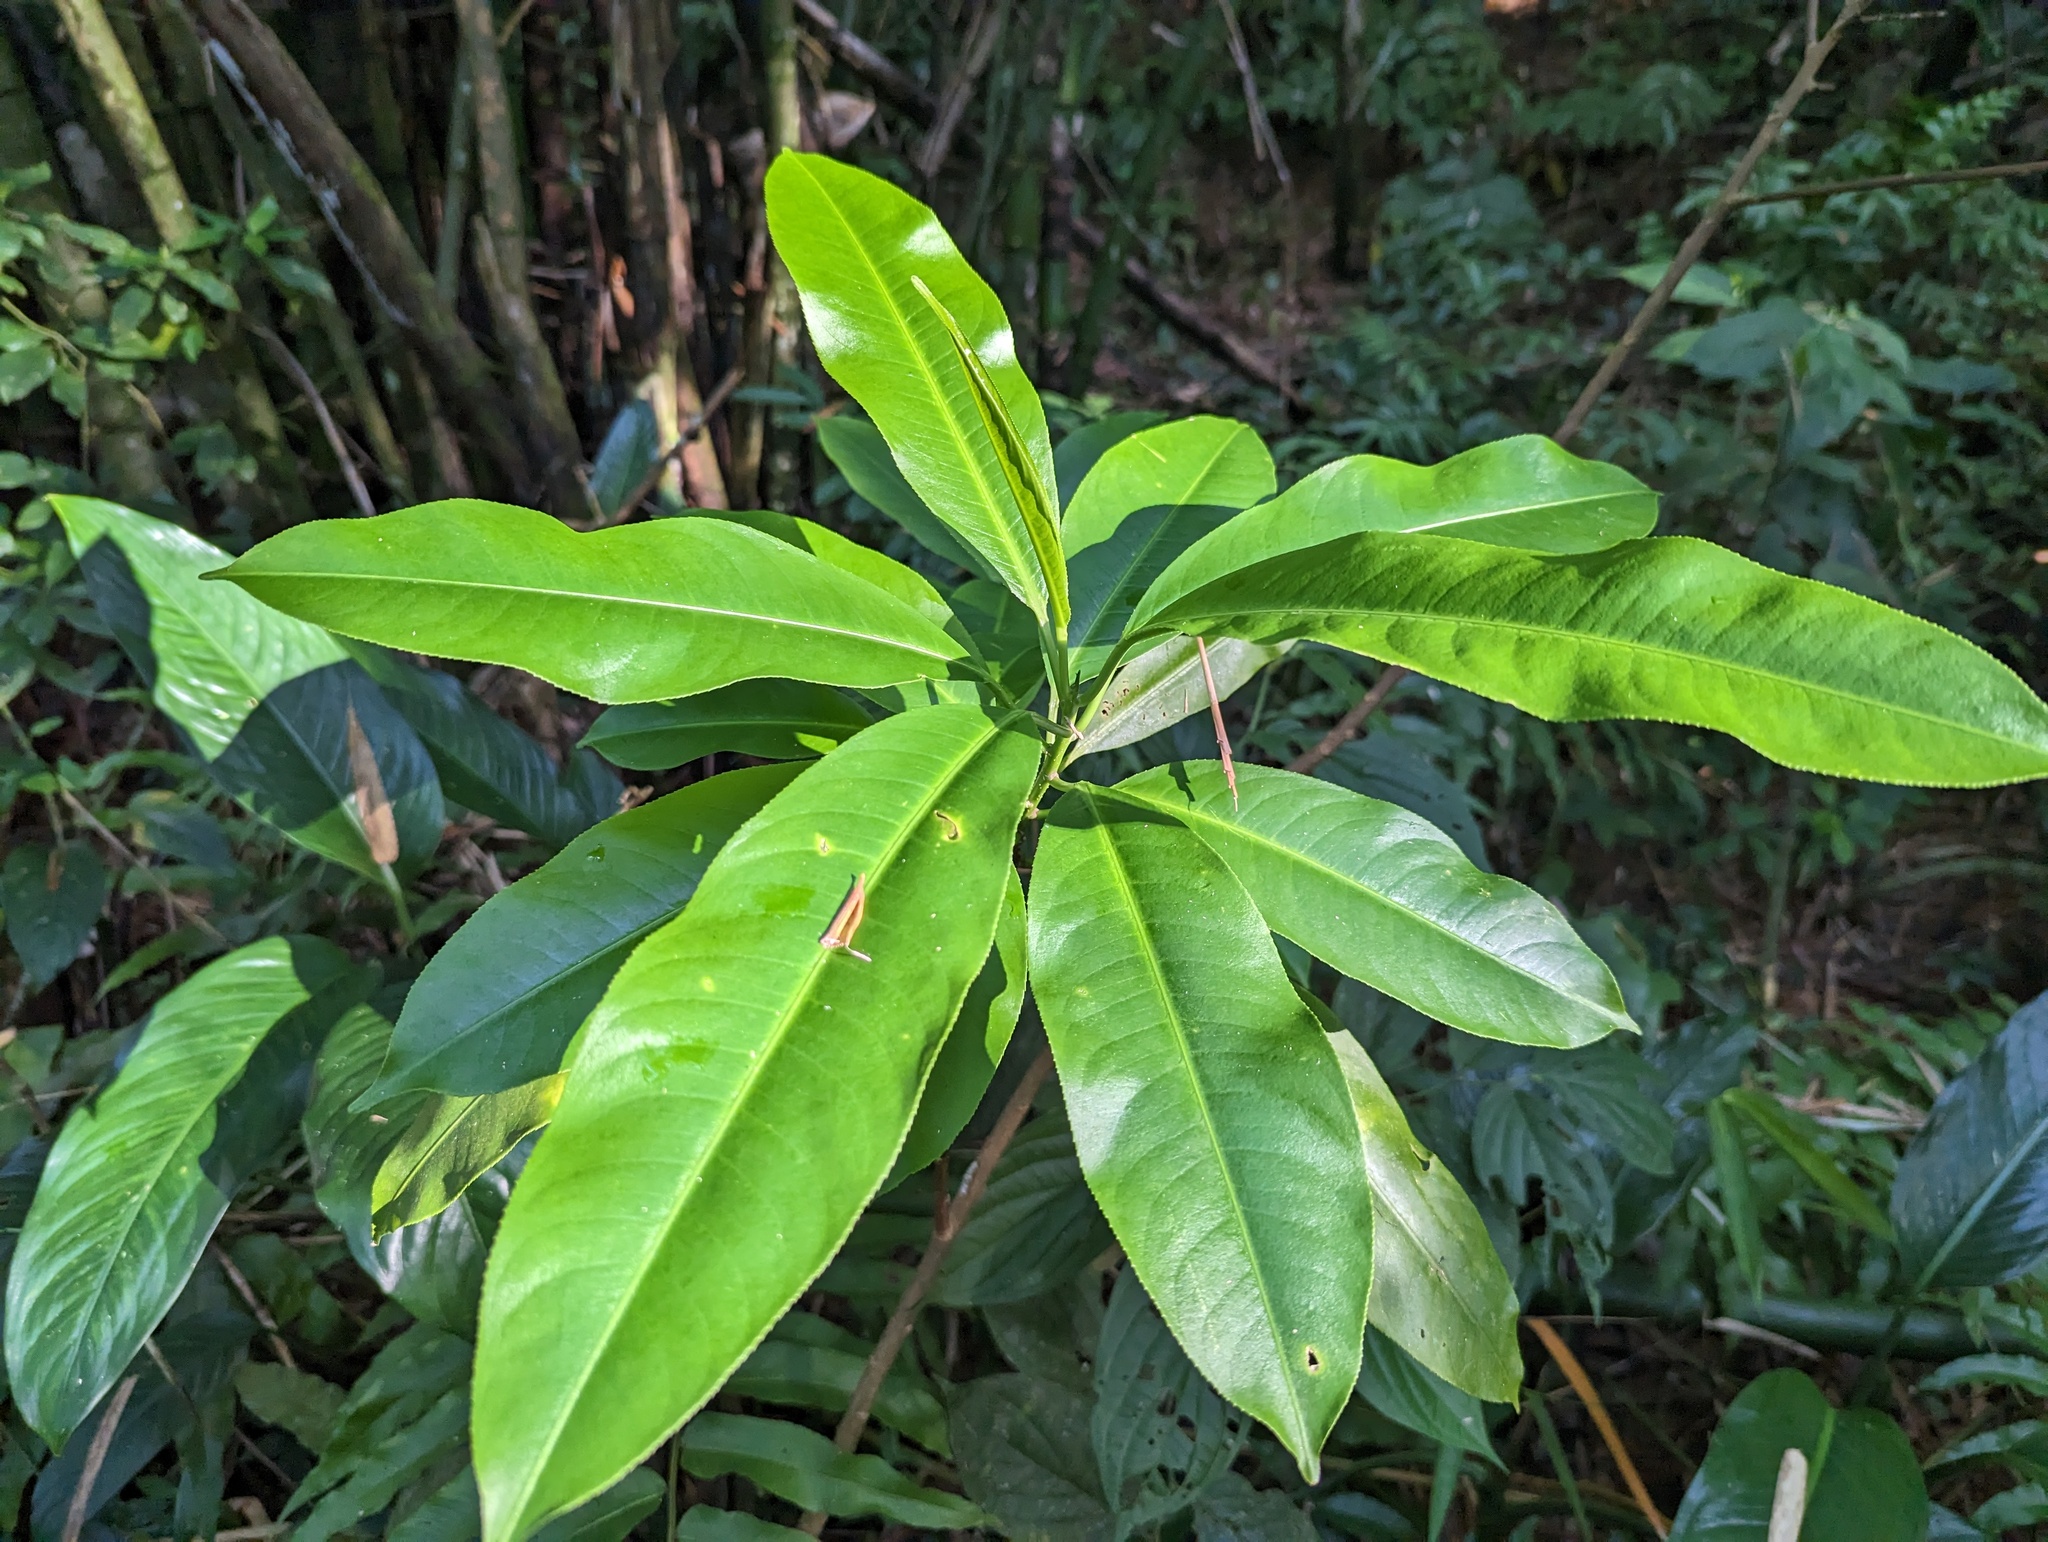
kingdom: Plantae
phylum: Tracheophyta
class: Magnoliopsida
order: Malpighiales
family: Euphorbiaceae
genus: Sapium
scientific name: Sapium laurocerasus
